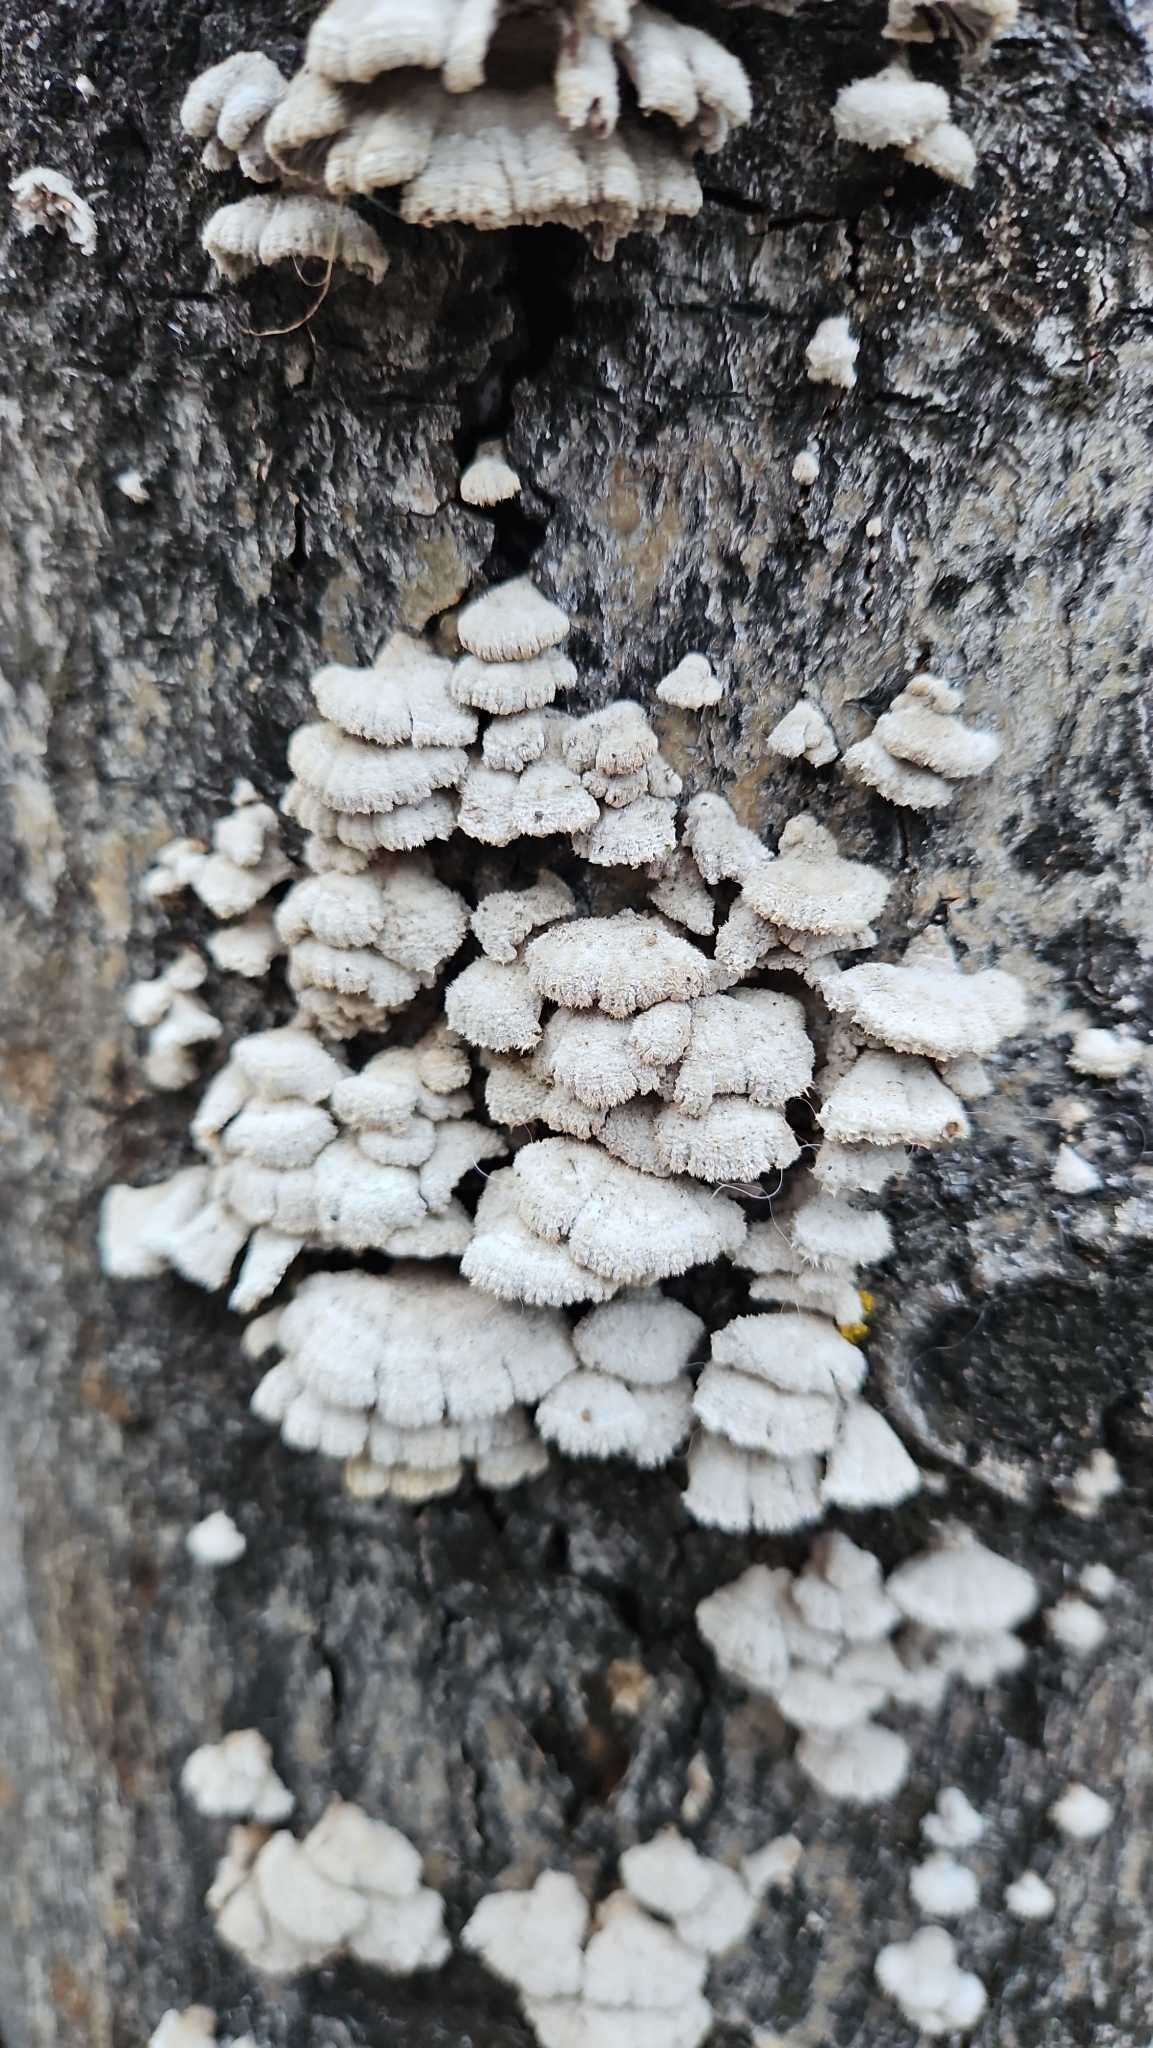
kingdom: Fungi
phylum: Basidiomycota
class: Agaricomycetes
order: Agaricales
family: Schizophyllaceae
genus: Schizophyllum
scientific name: Schizophyllum commune
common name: Common porecrust
